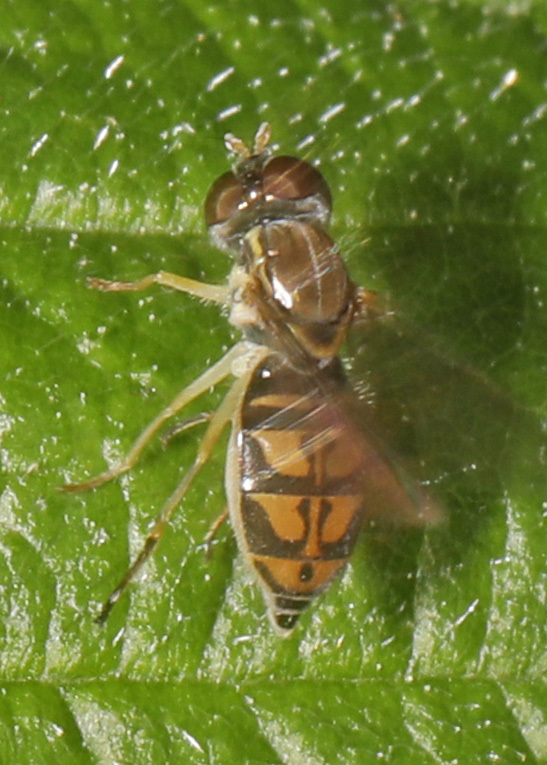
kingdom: Animalia
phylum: Arthropoda
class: Insecta
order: Diptera
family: Syrphidae
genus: Toxomerus
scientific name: Toxomerus marginatus
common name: Syrphid fly
